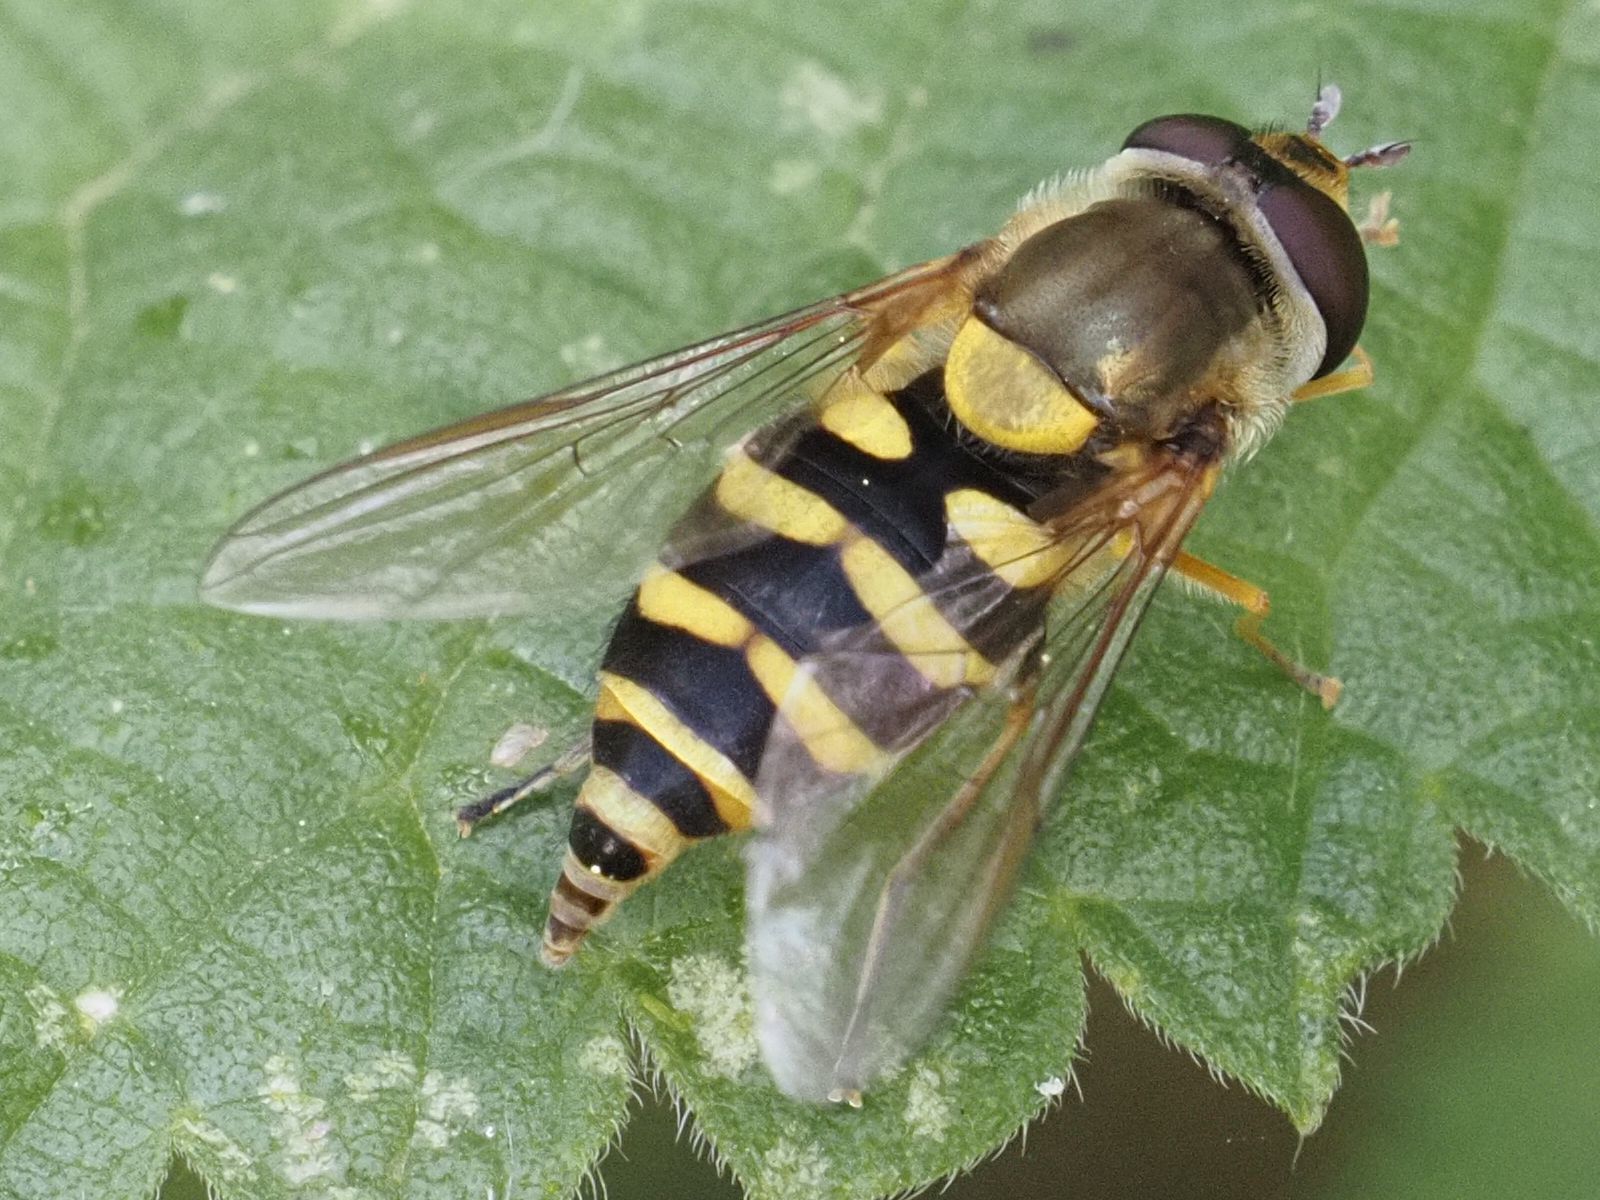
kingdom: Animalia
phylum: Arthropoda
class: Insecta
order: Diptera
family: Syrphidae
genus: Syrphus
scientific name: Syrphus
